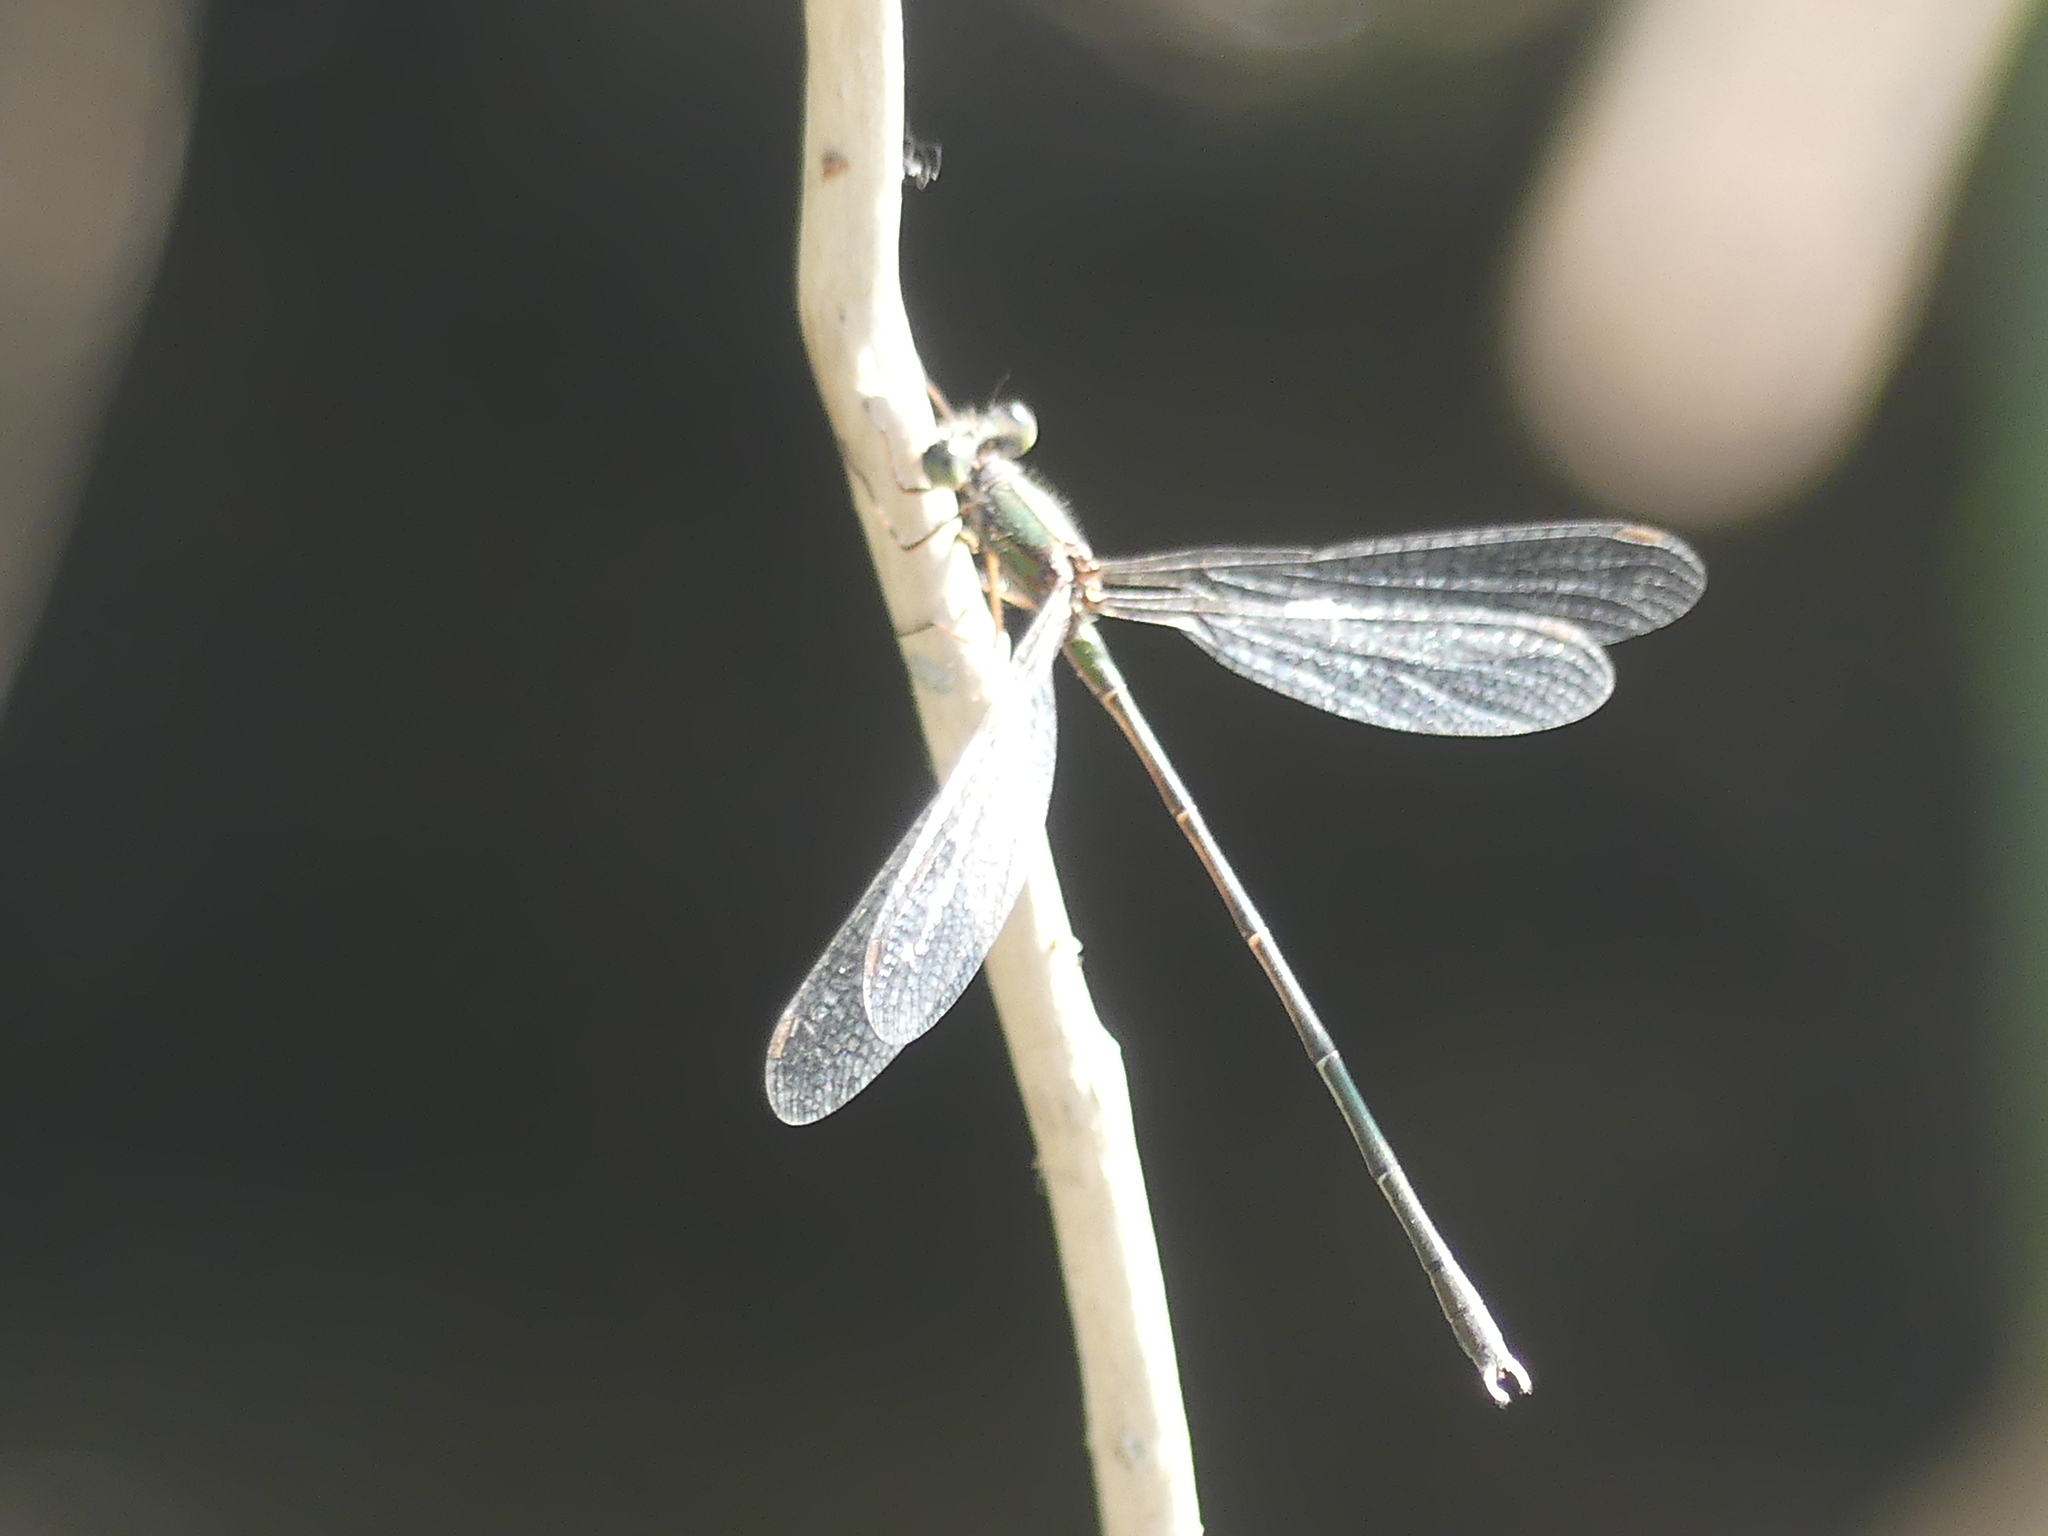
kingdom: Animalia
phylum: Arthropoda
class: Insecta
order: Odonata
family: Lestidae
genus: Chalcolestes
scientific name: Chalcolestes parvidens
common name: Eastern willow spreadwing
